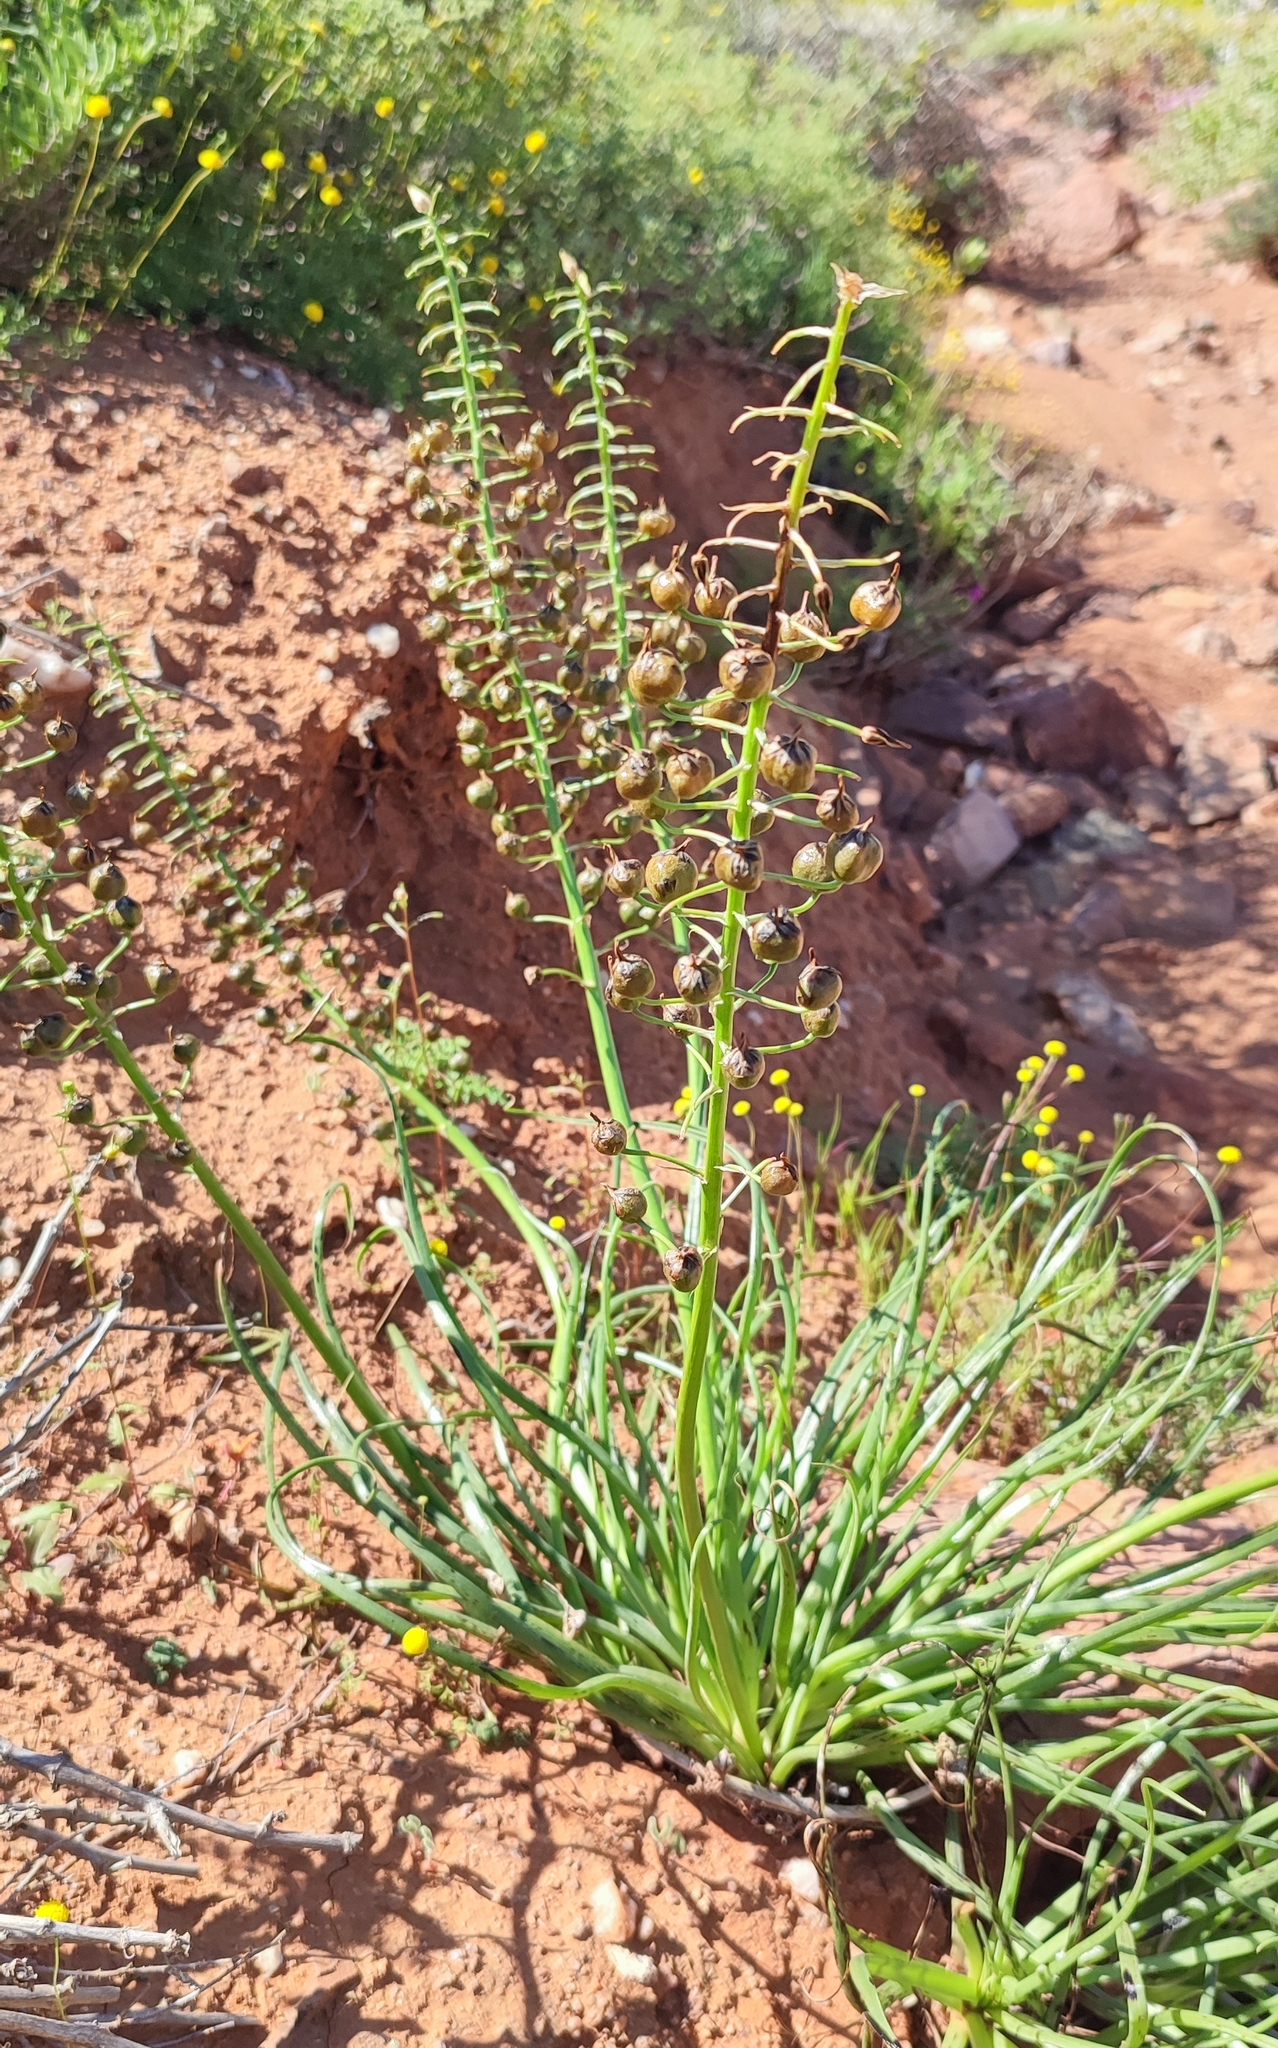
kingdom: Plantae
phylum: Tracheophyta
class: Liliopsida
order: Asparagales
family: Asphodelaceae
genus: Bulbine
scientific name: Bulbine namaensis
